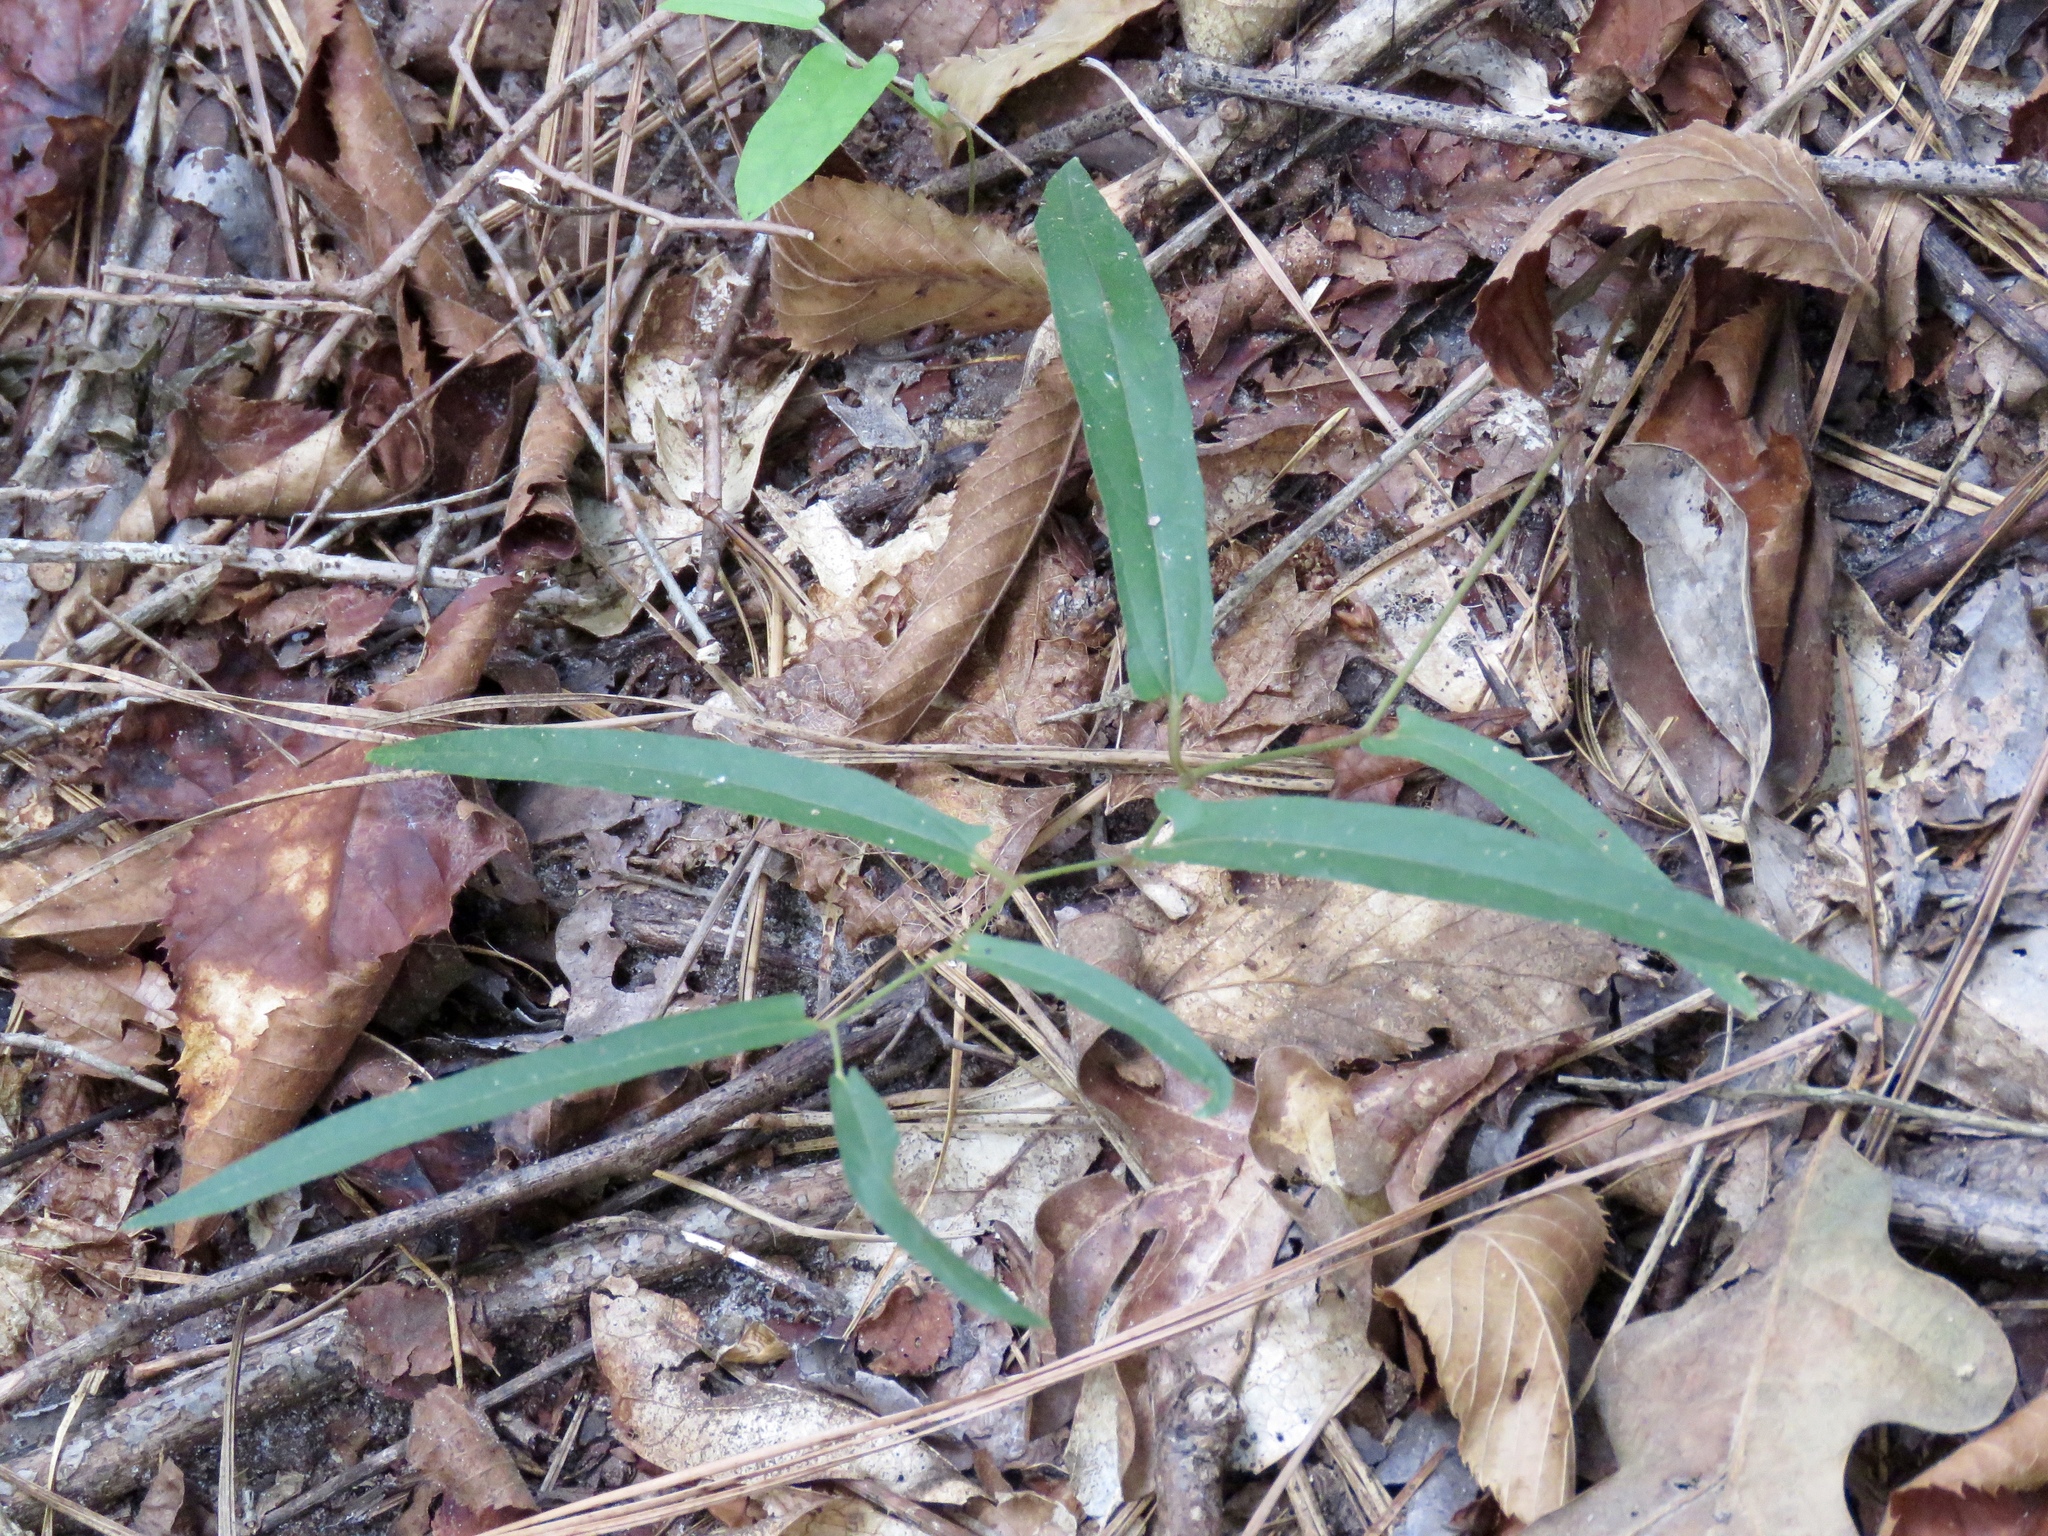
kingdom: Plantae
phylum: Tracheophyta
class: Magnoliopsida
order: Piperales
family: Aristolochiaceae
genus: Endodeca
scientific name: Endodeca serpentaria
